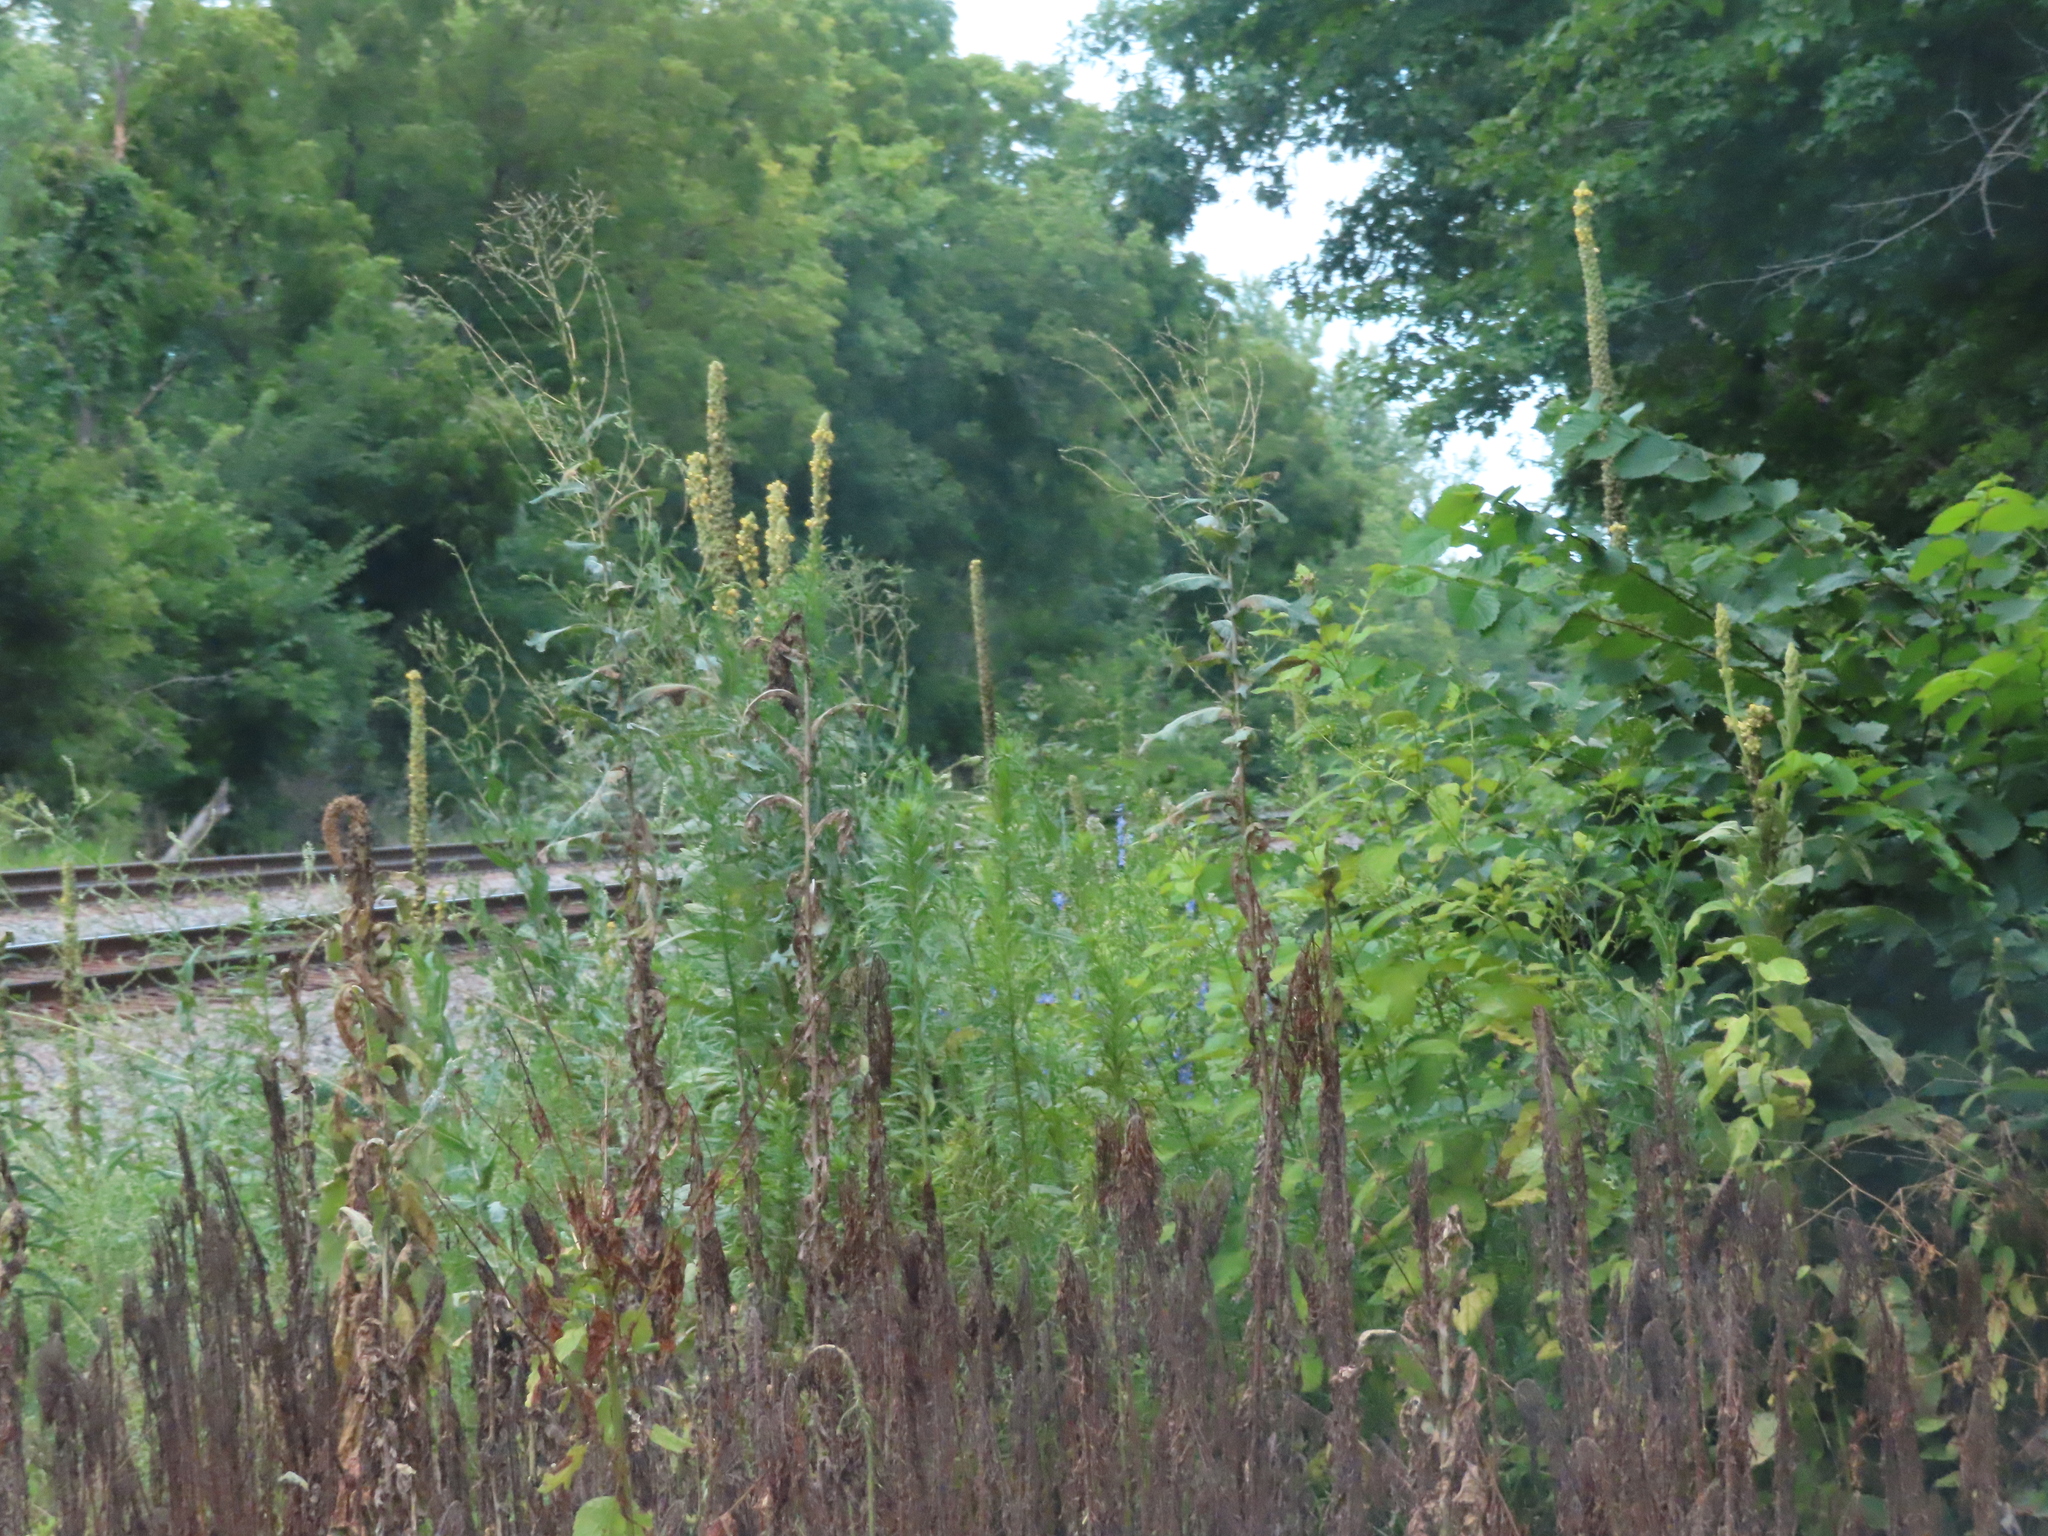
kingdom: Plantae
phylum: Tracheophyta
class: Magnoliopsida
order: Lamiales
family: Scrophulariaceae
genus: Verbascum
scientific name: Verbascum thapsus
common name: Common mullein
